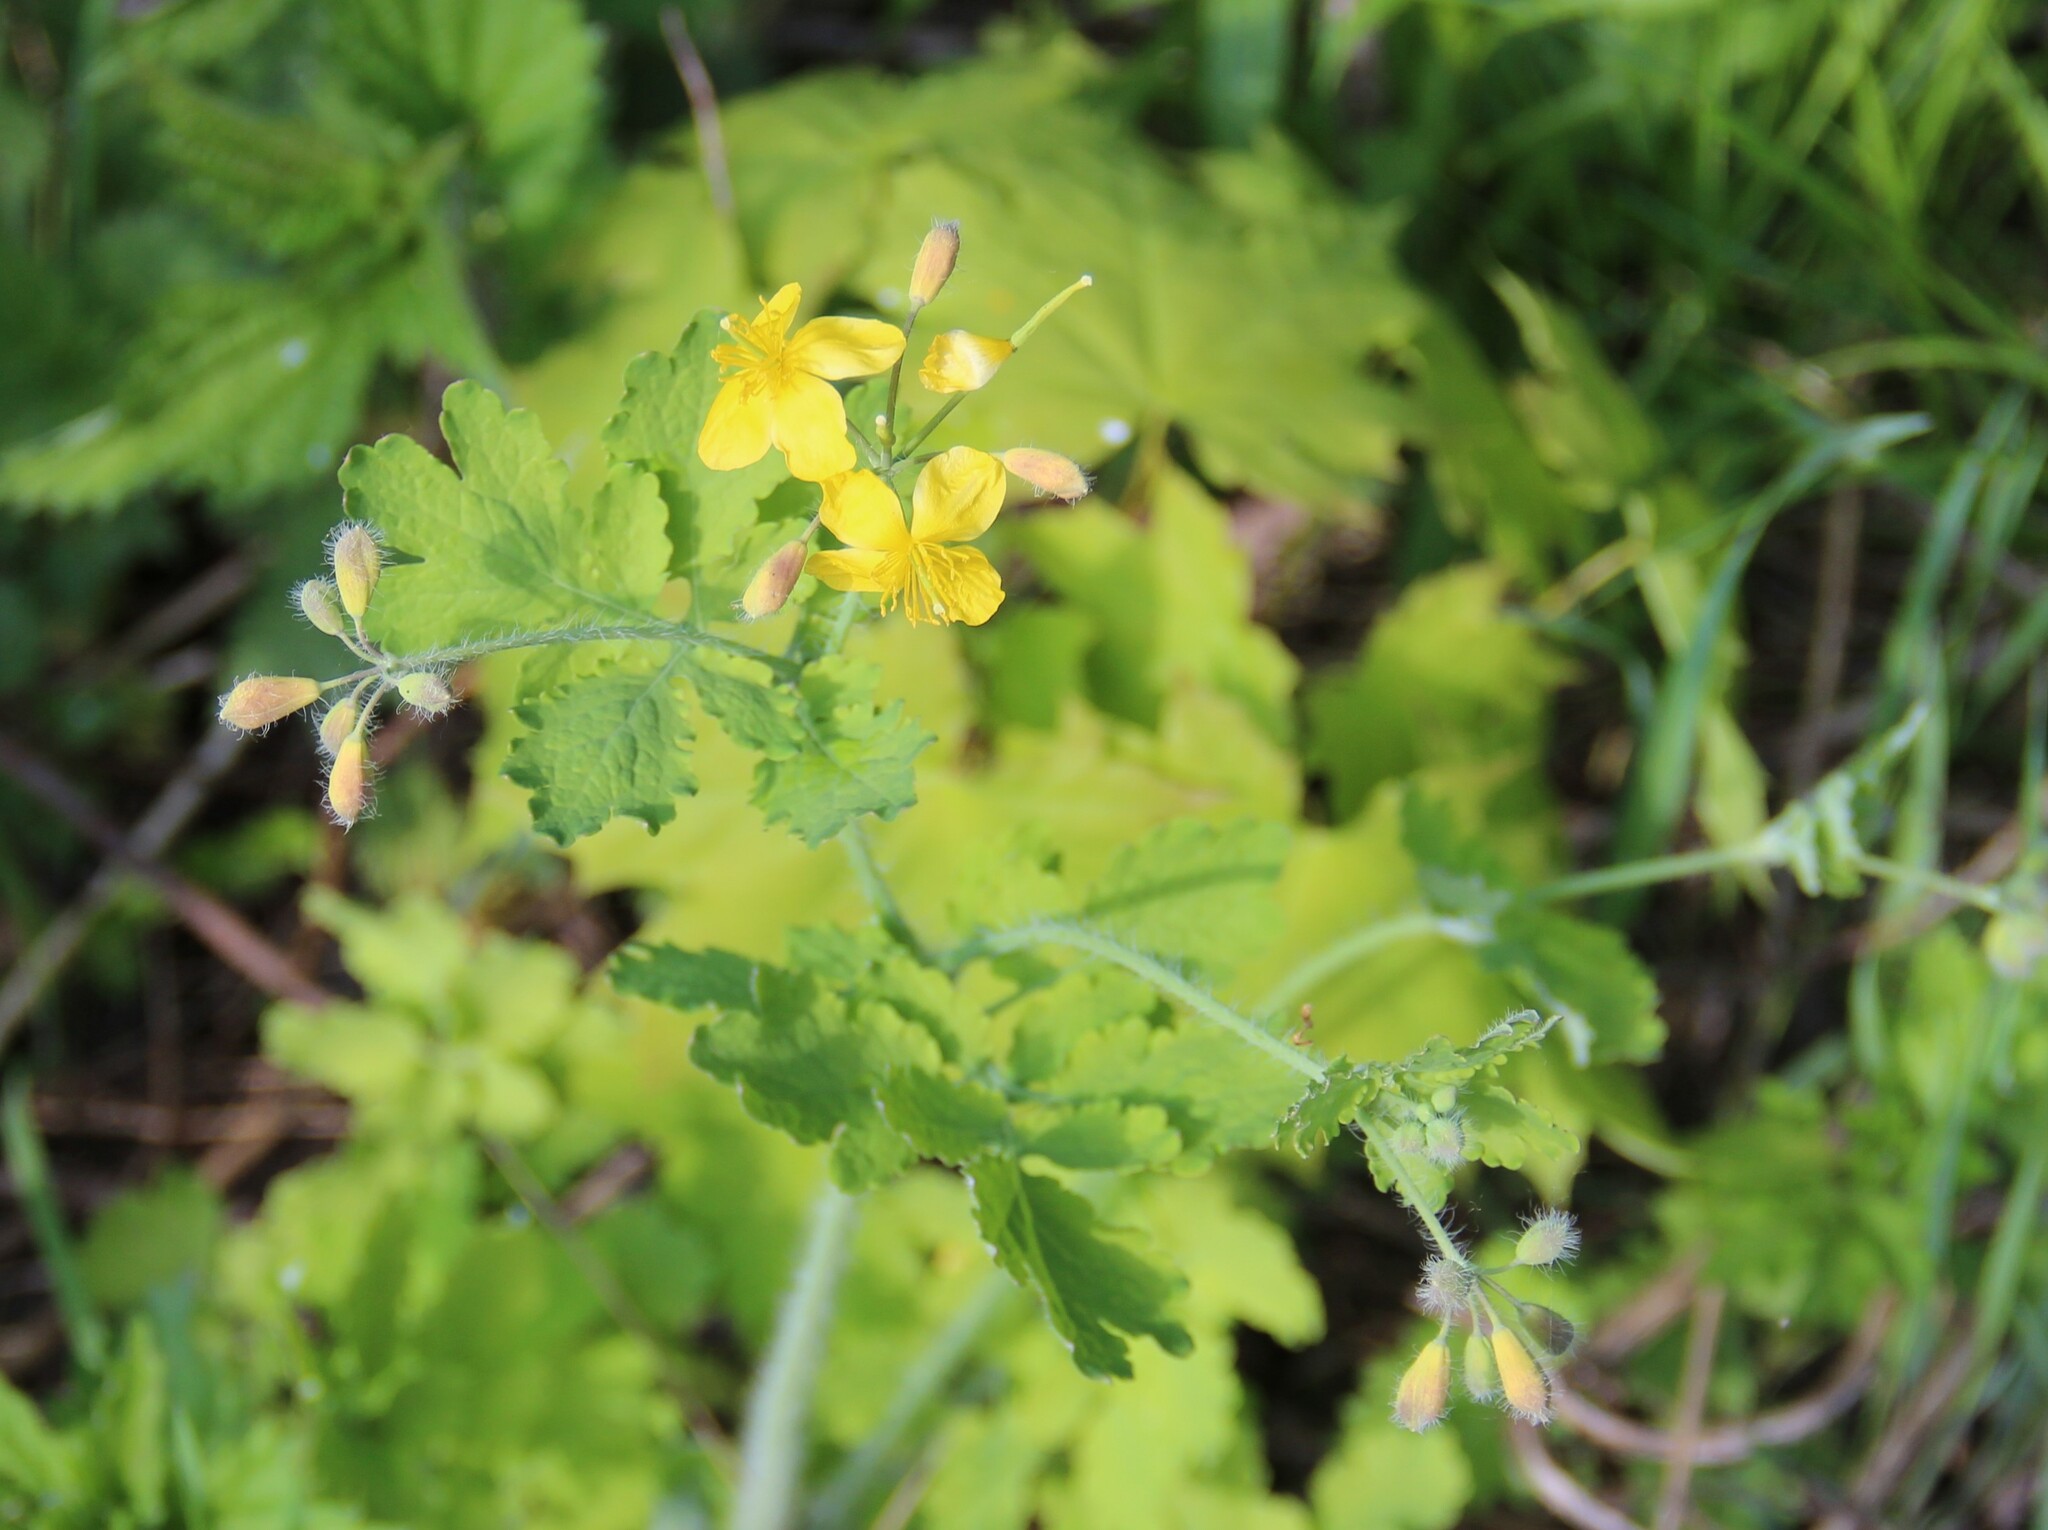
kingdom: Plantae
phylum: Tracheophyta
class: Magnoliopsida
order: Ranunculales
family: Papaveraceae
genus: Chelidonium
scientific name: Chelidonium majus
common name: Greater celandine
